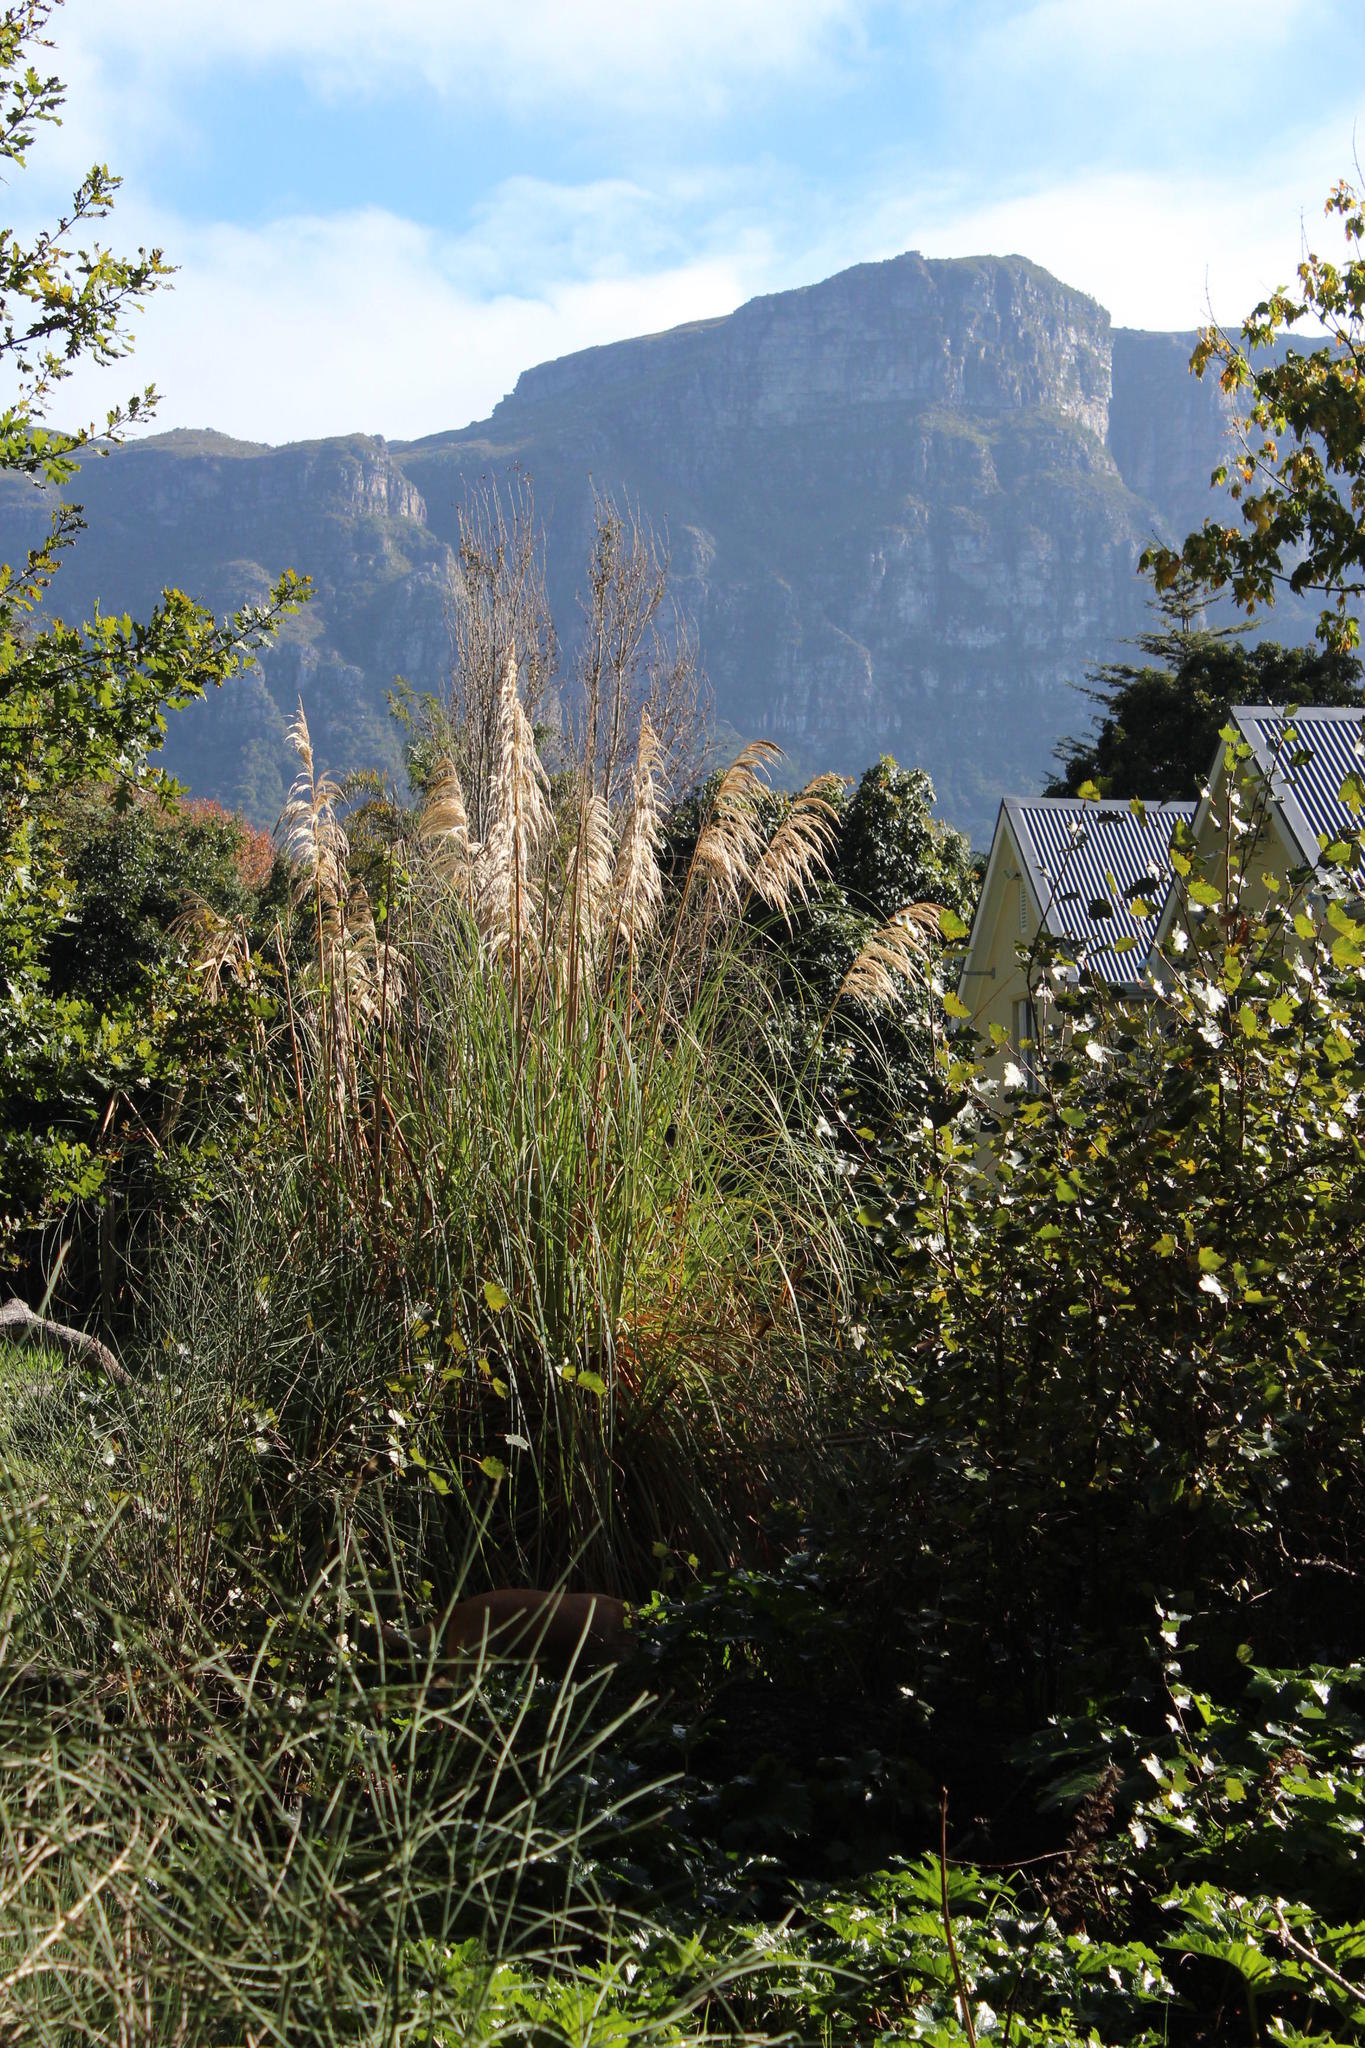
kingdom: Plantae
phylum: Tracheophyta
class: Liliopsida
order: Poales
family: Poaceae
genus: Cortaderia
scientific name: Cortaderia selloana
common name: Uruguayan pampas grass
